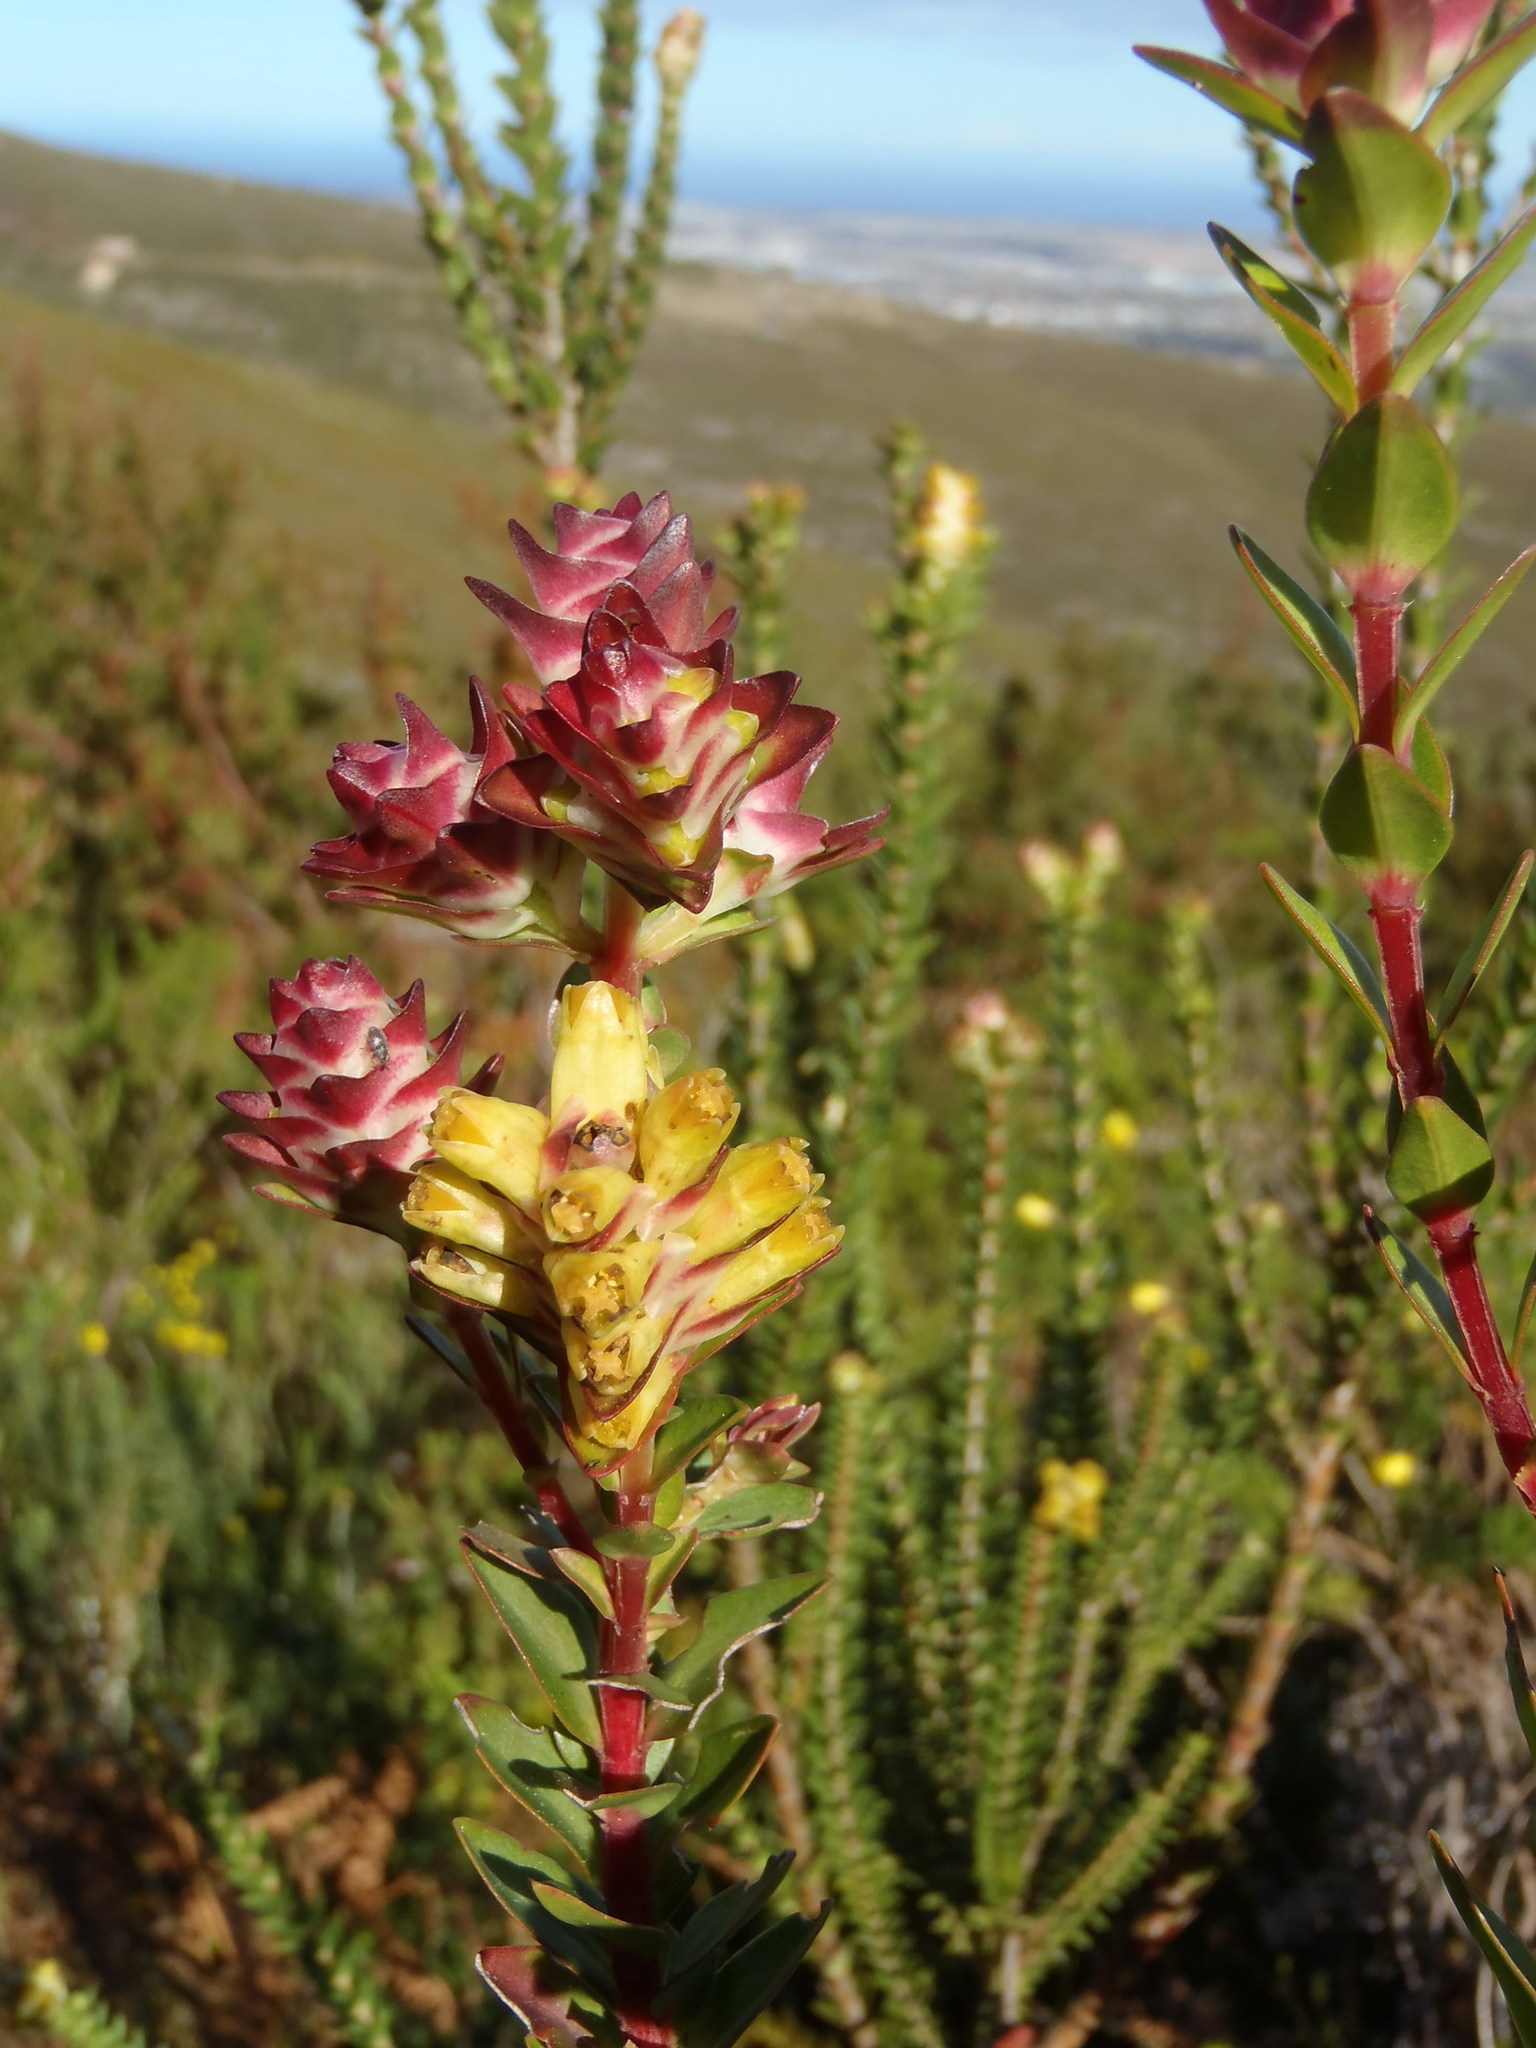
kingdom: Plantae
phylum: Tracheophyta
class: Magnoliopsida
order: Myrtales
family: Penaeaceae
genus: Penaea
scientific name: Penaea cneorum
